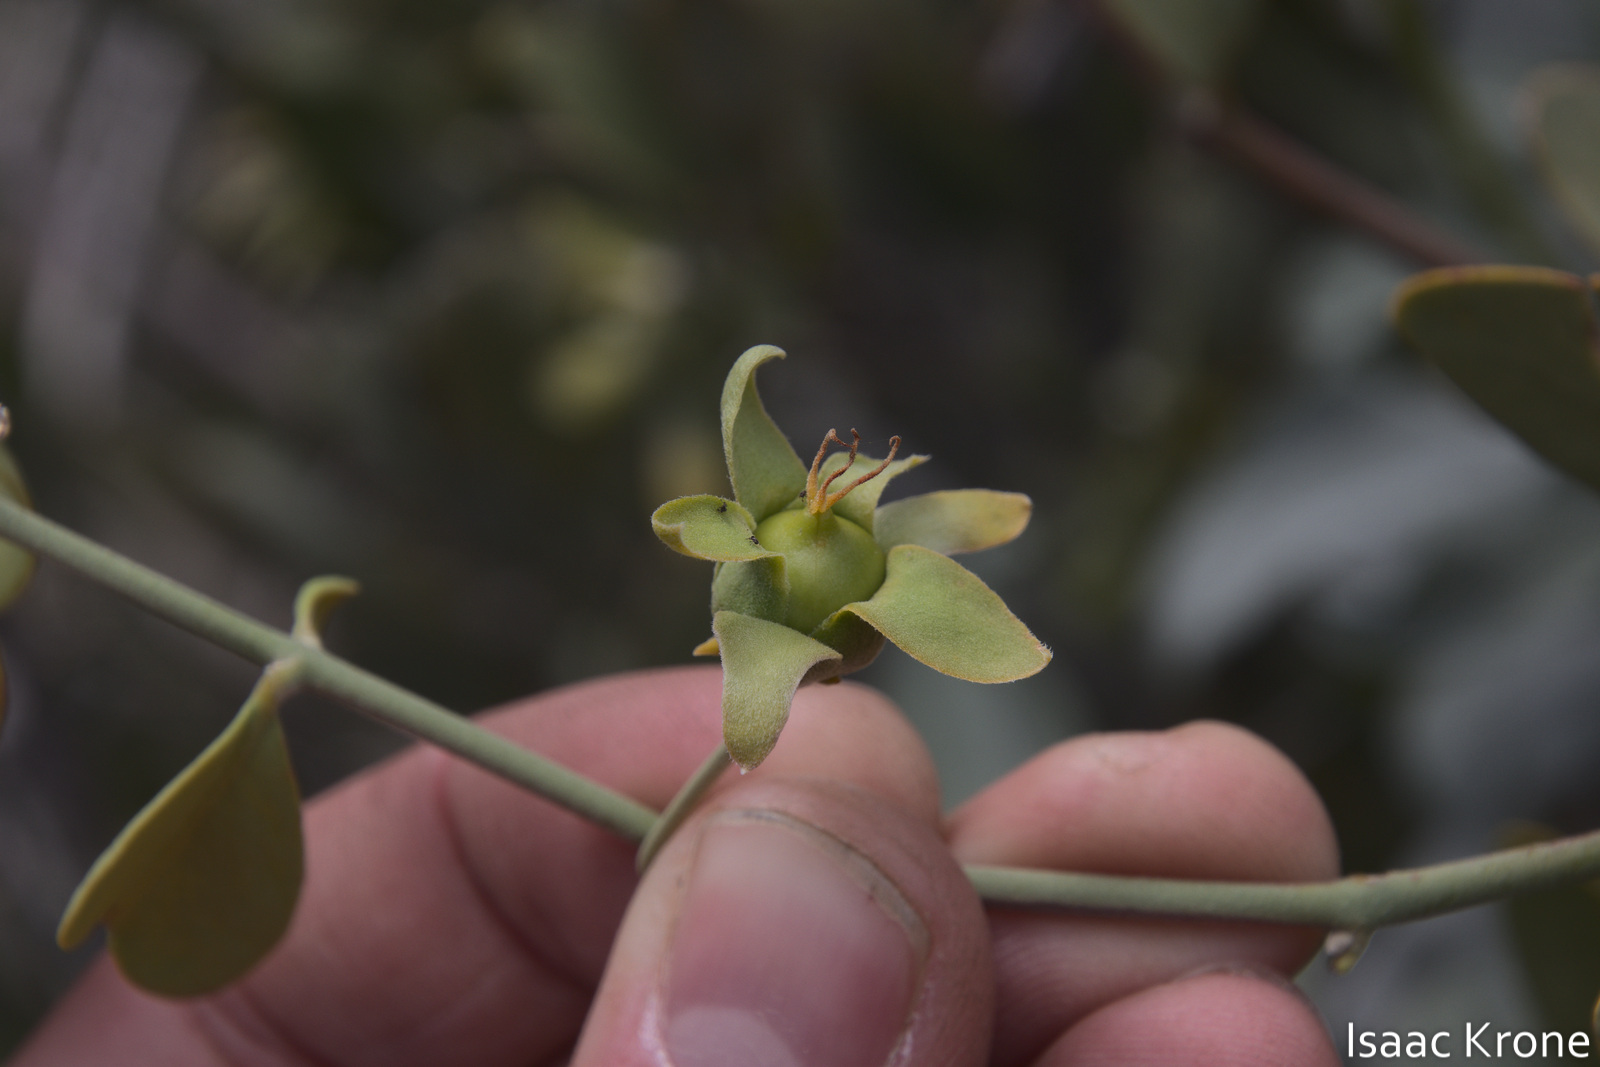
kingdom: Plantae
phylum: Tracheophyta
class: Magnoliopsida
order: Caryophyllales
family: Simmondsiaceae
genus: Simmondsia
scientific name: Simmondsia chinensis
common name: Jojoba
